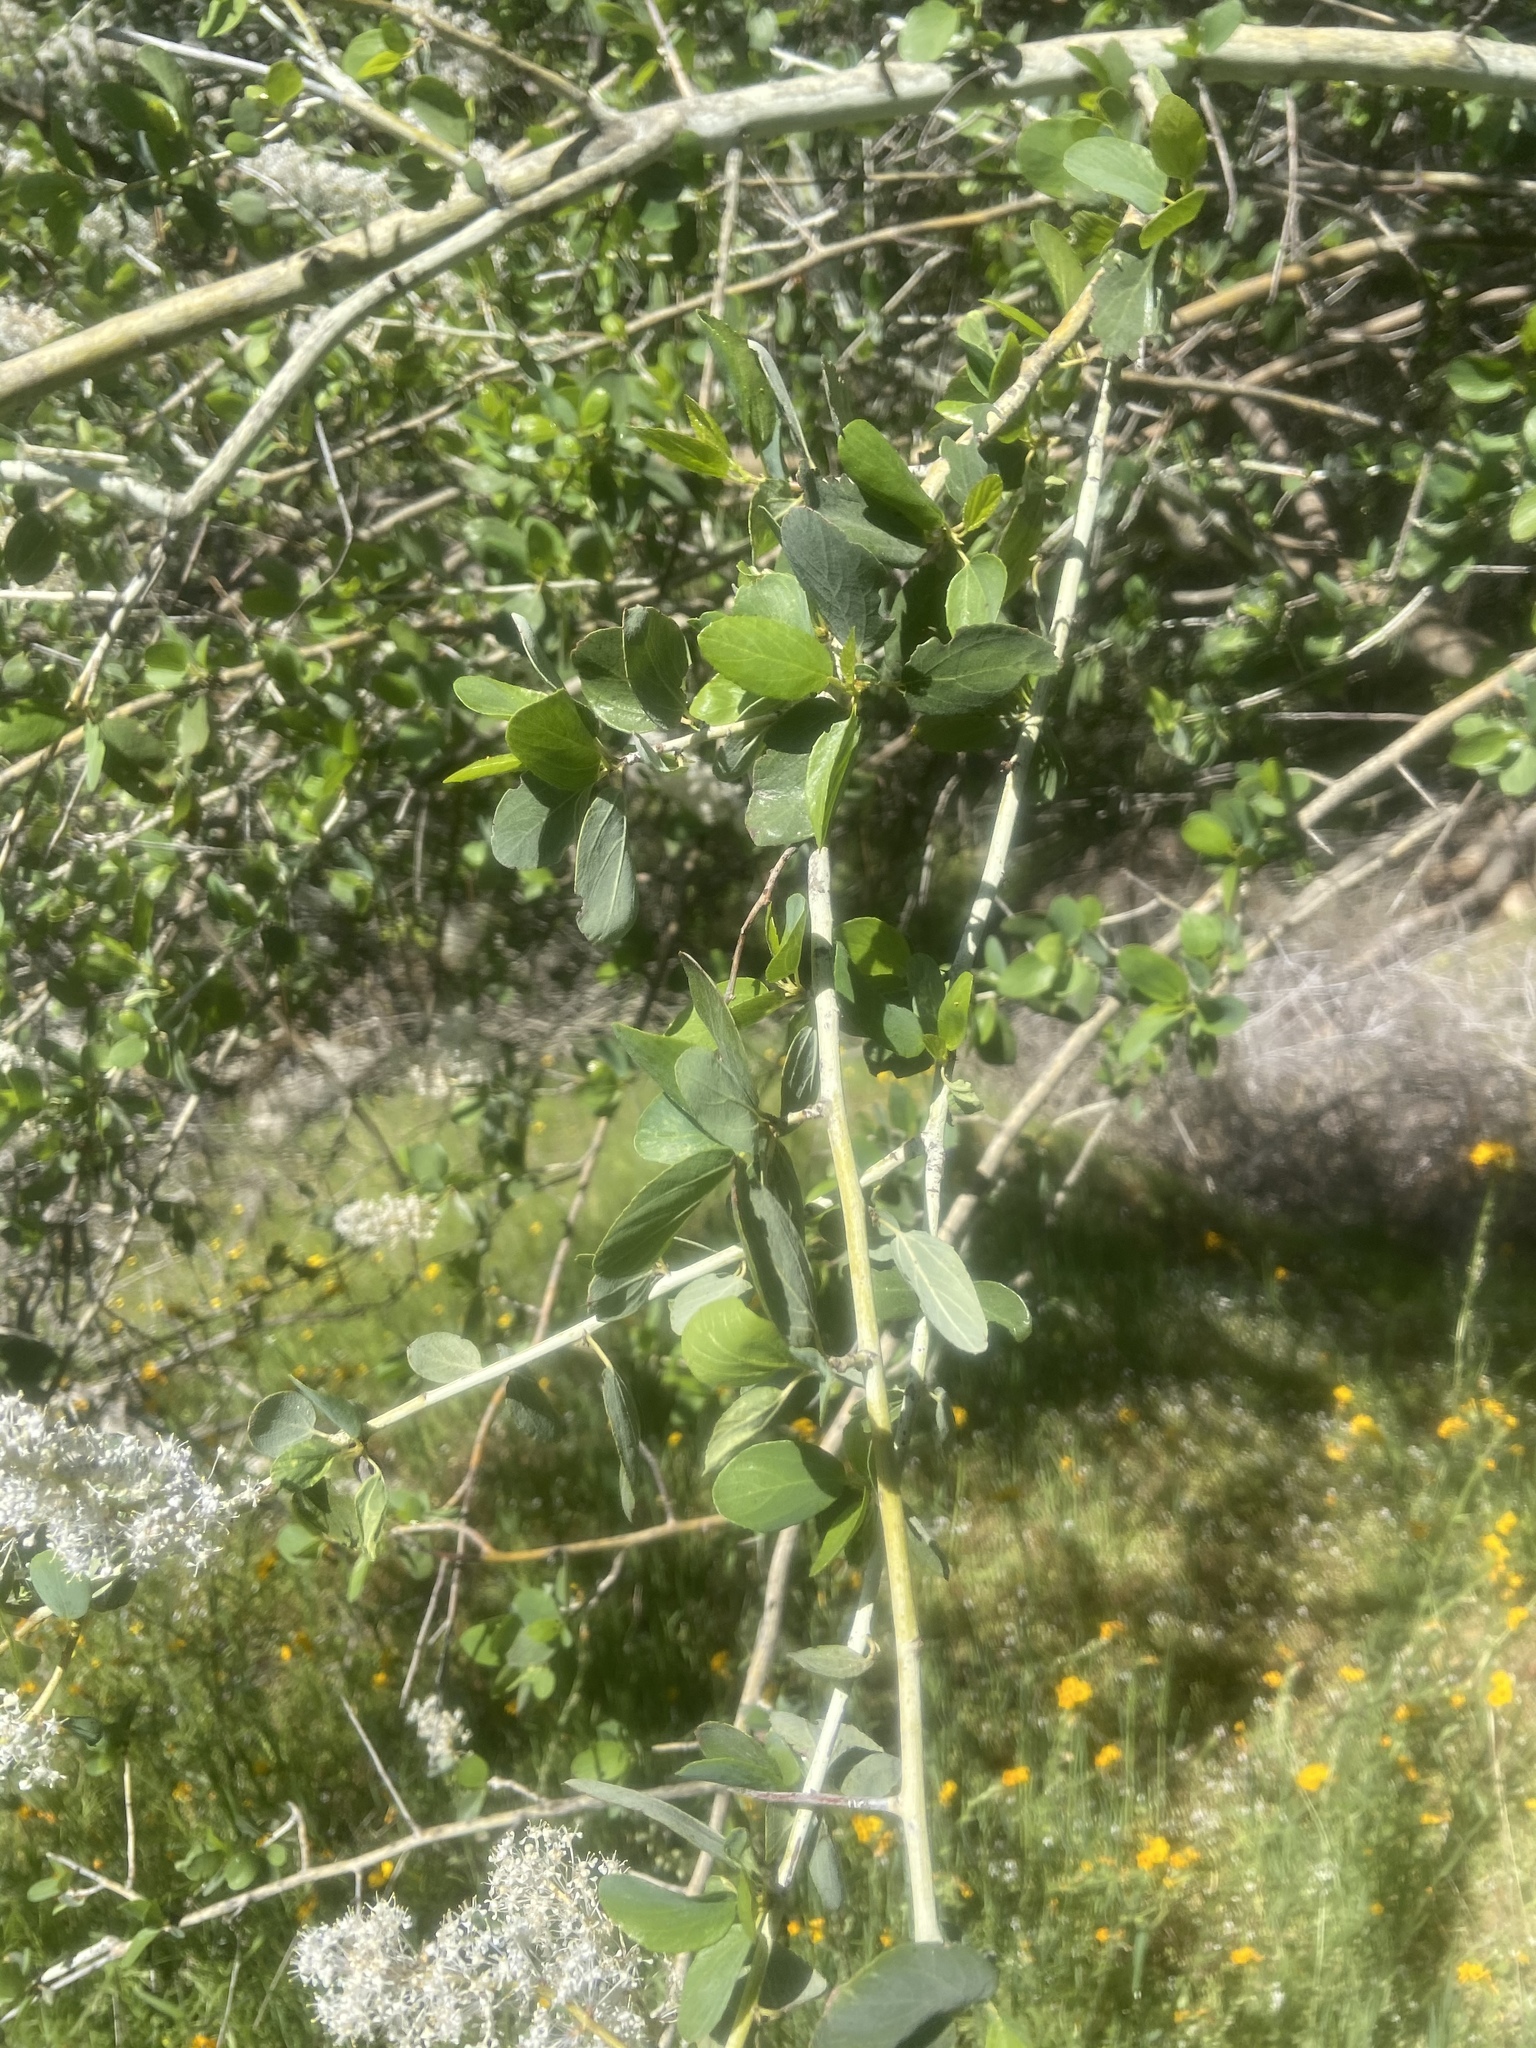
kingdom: Plantae
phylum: Tracheophyta
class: Magnoliopsida
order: Rosales
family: Rhamnaceae
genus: Ceanothus
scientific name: Ceanothus leucodermis
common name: Chaparral whitethorn
